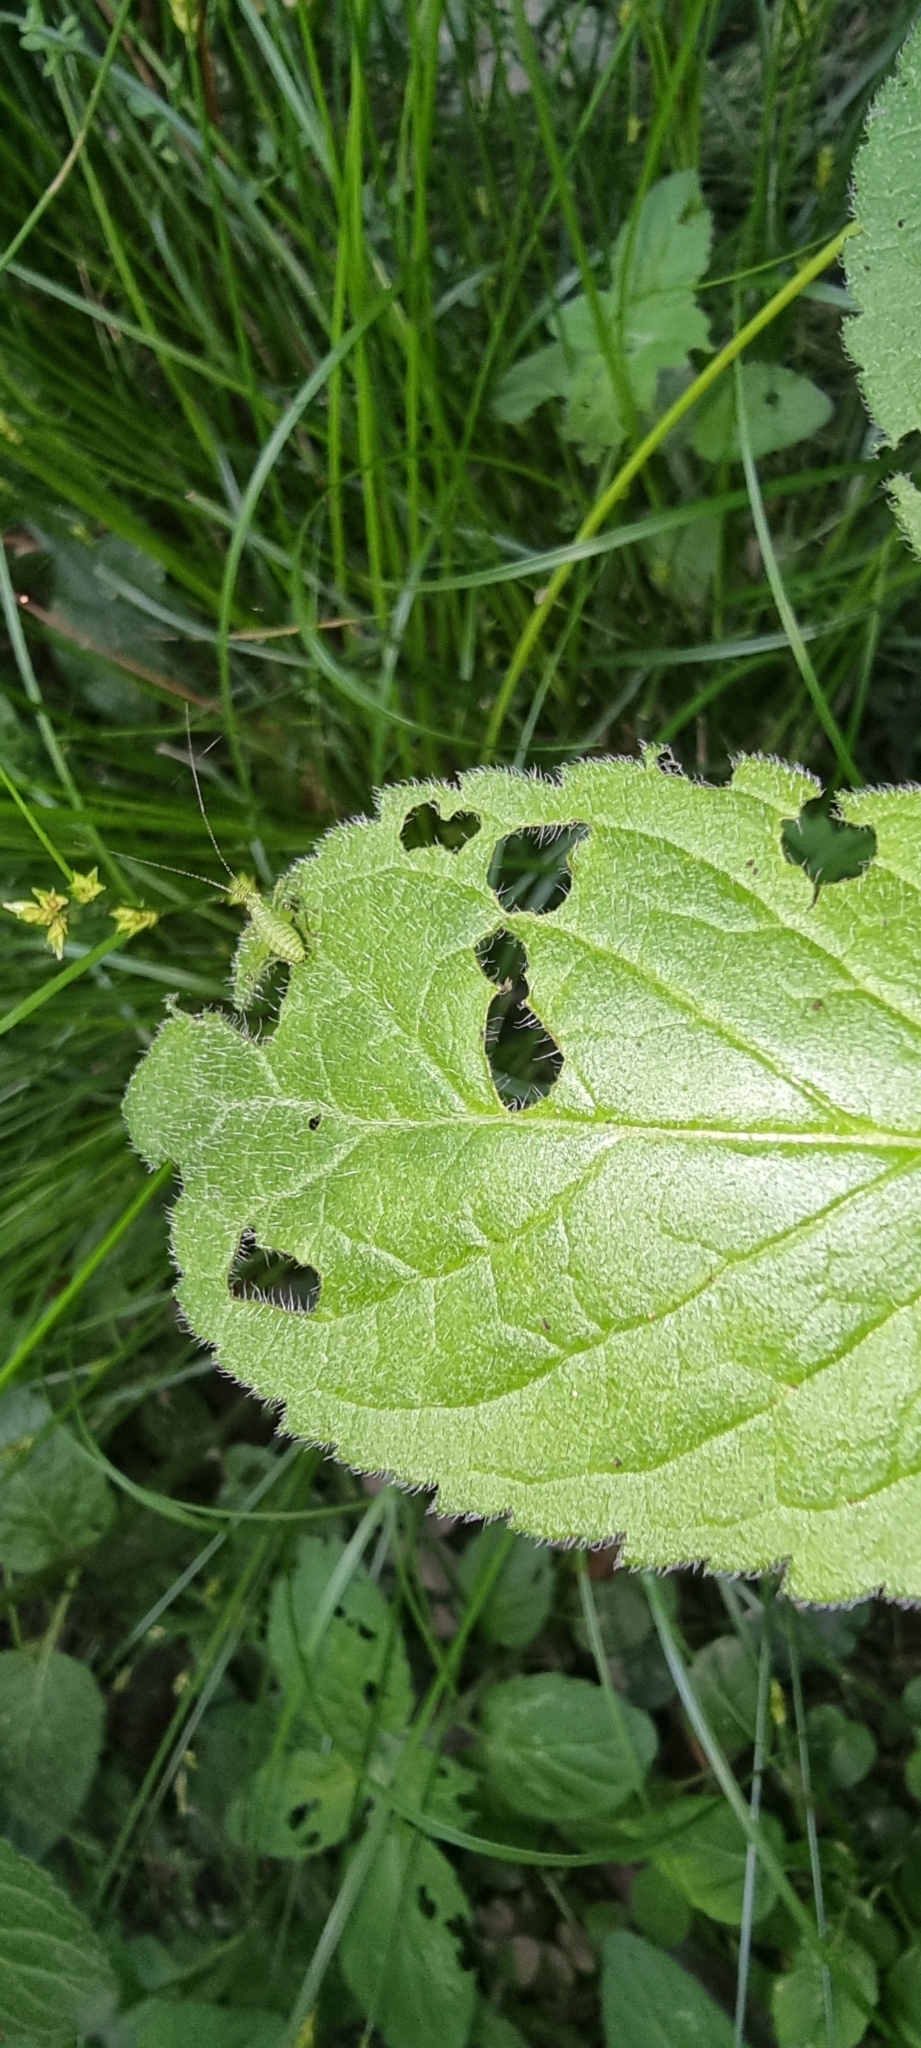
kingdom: Animalia
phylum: Arthropoda
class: Insecta
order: Orthoptera
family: Tettigoniidae
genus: Leptophyes
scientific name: Leptophyes punctatissima
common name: Speckled bush-cricket
